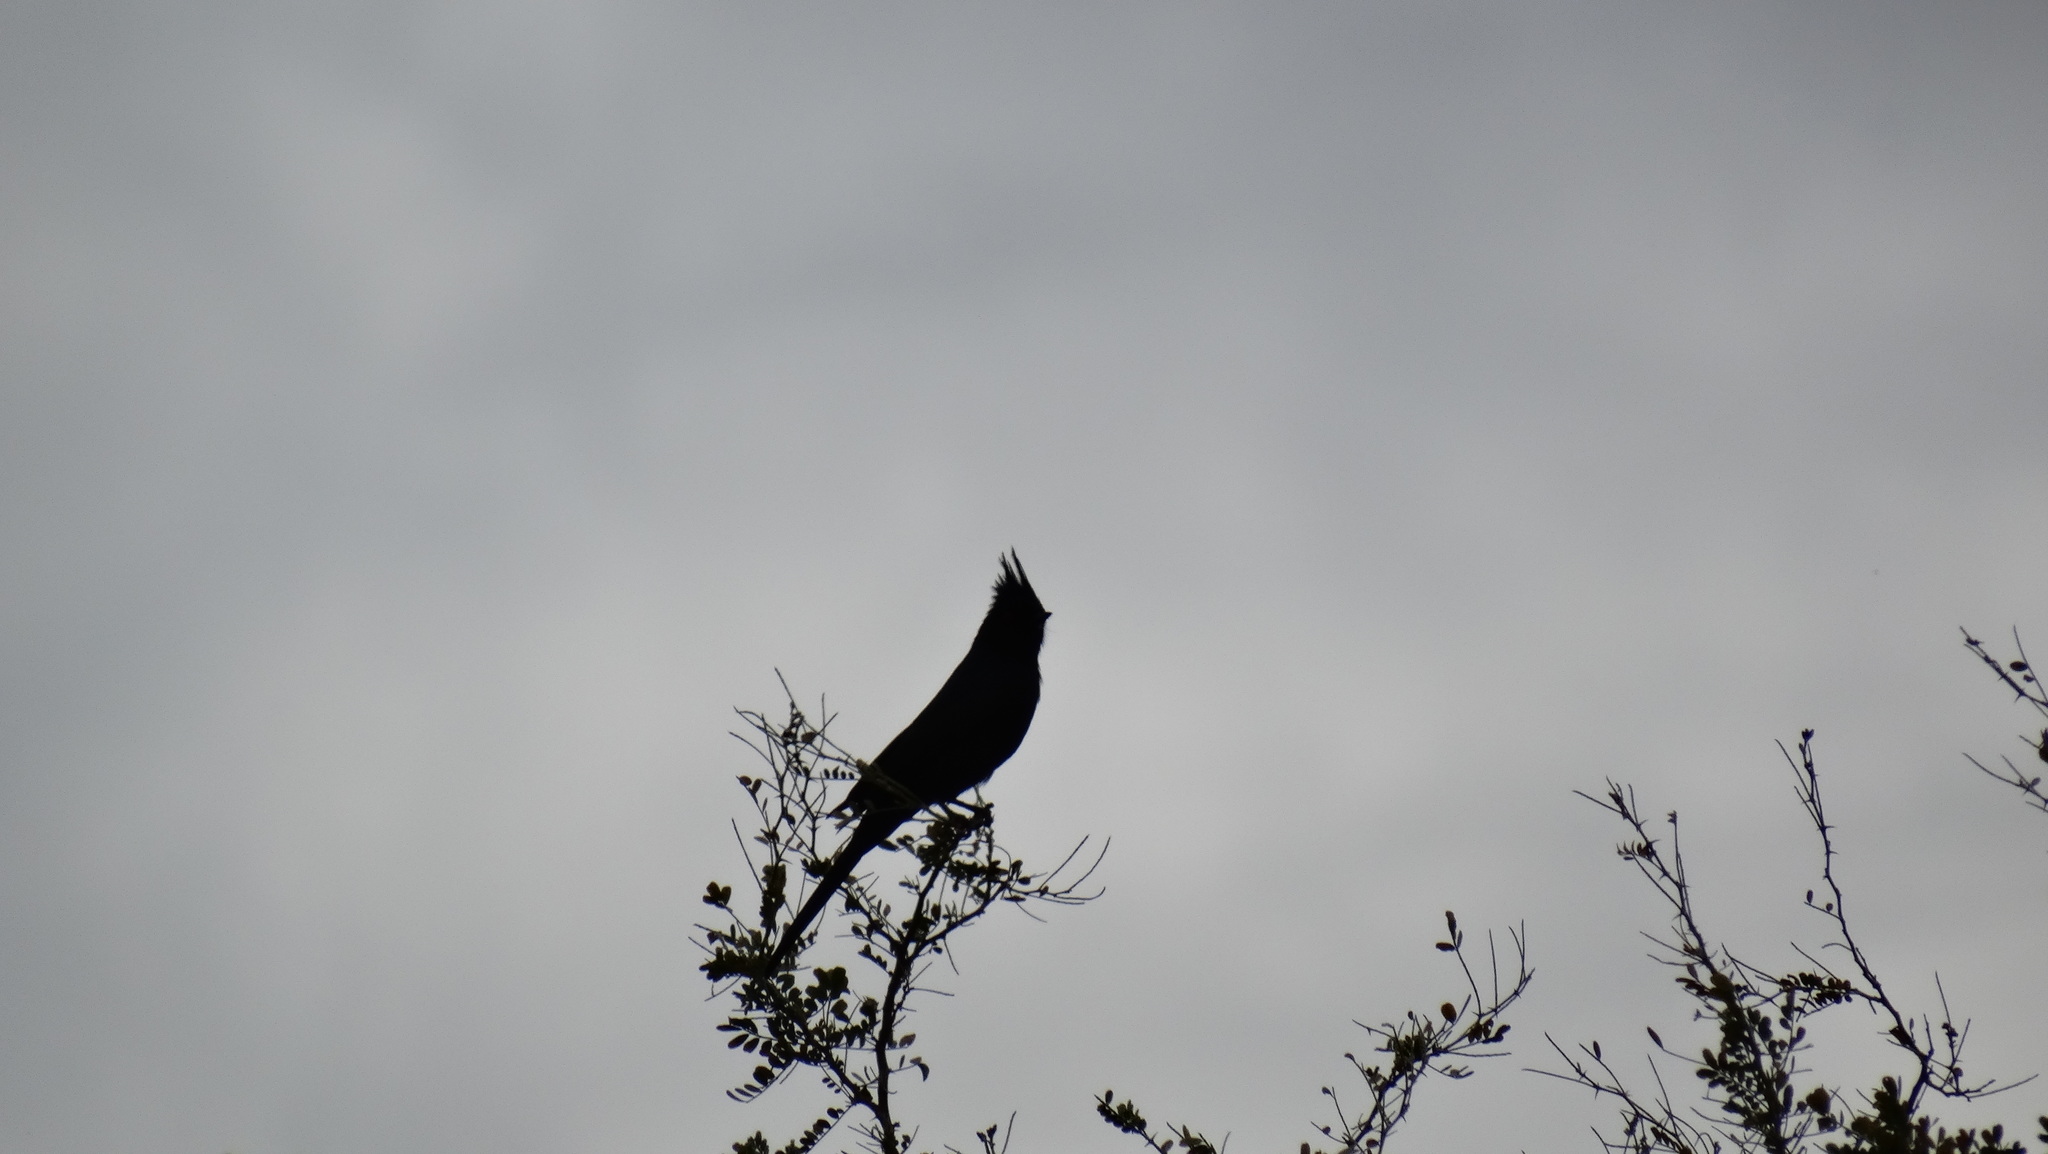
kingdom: Animalia
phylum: Chordata
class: Aves
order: Passeriformes
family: Ptilogonatidae
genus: Phainopepla
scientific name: Phainopepla nitens
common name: Phainopepla
